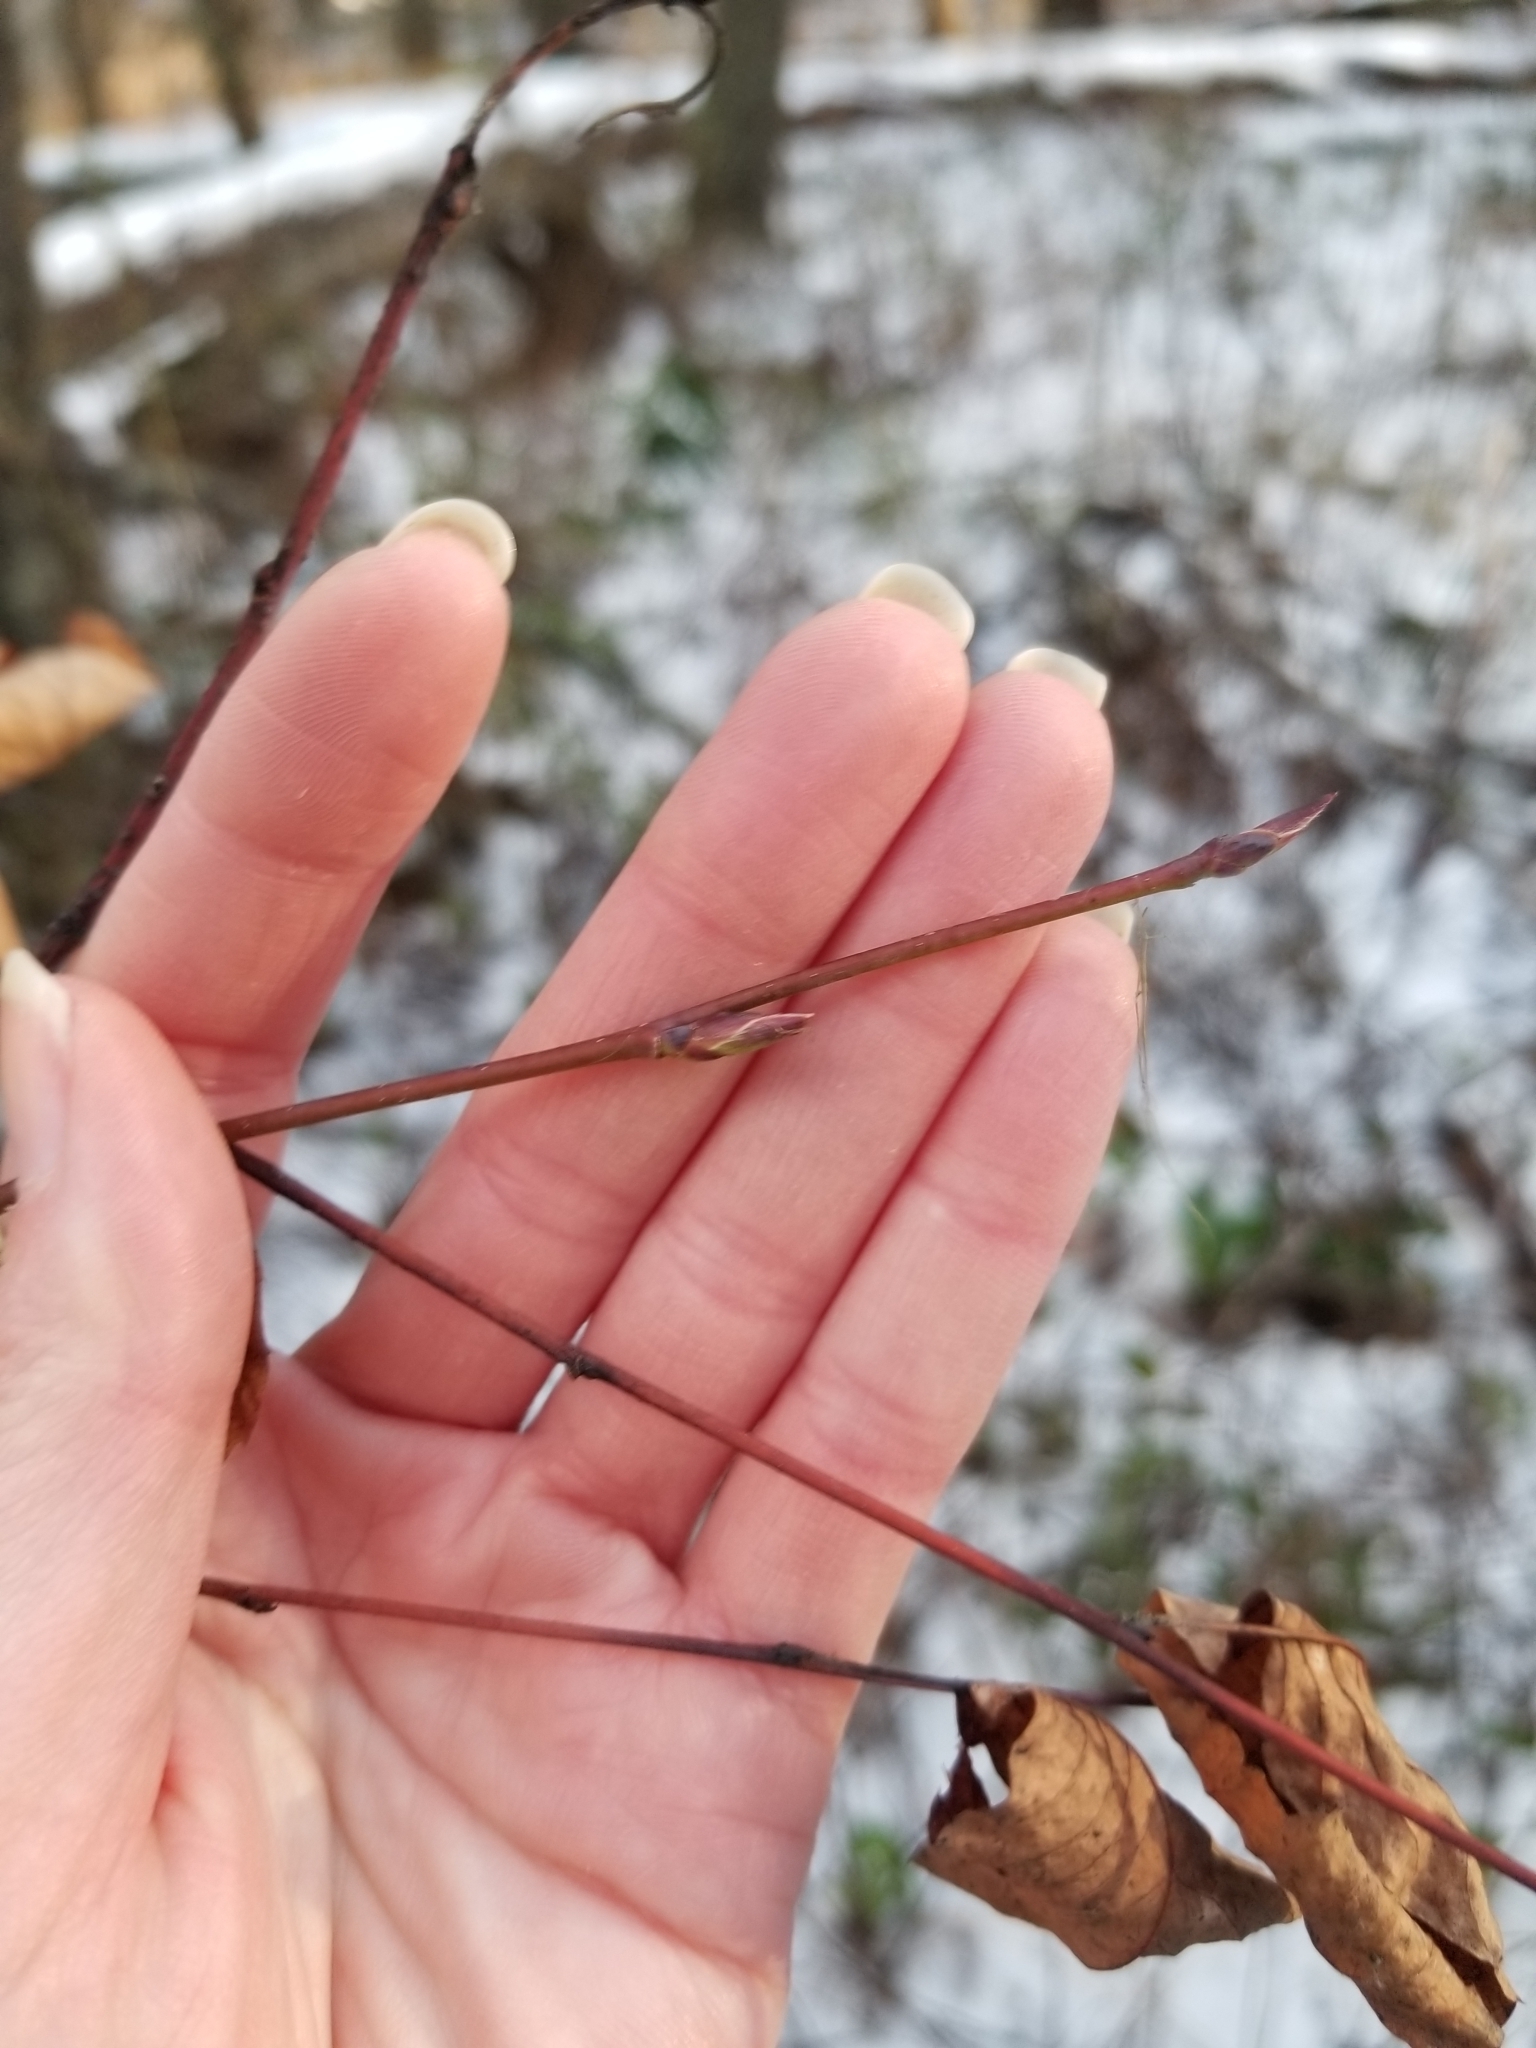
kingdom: Plantae
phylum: Tracheophyta
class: Magnoliopsida
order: Rosales
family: Rosaceae
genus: Amelanchier
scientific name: Amelanchier alnifolia
